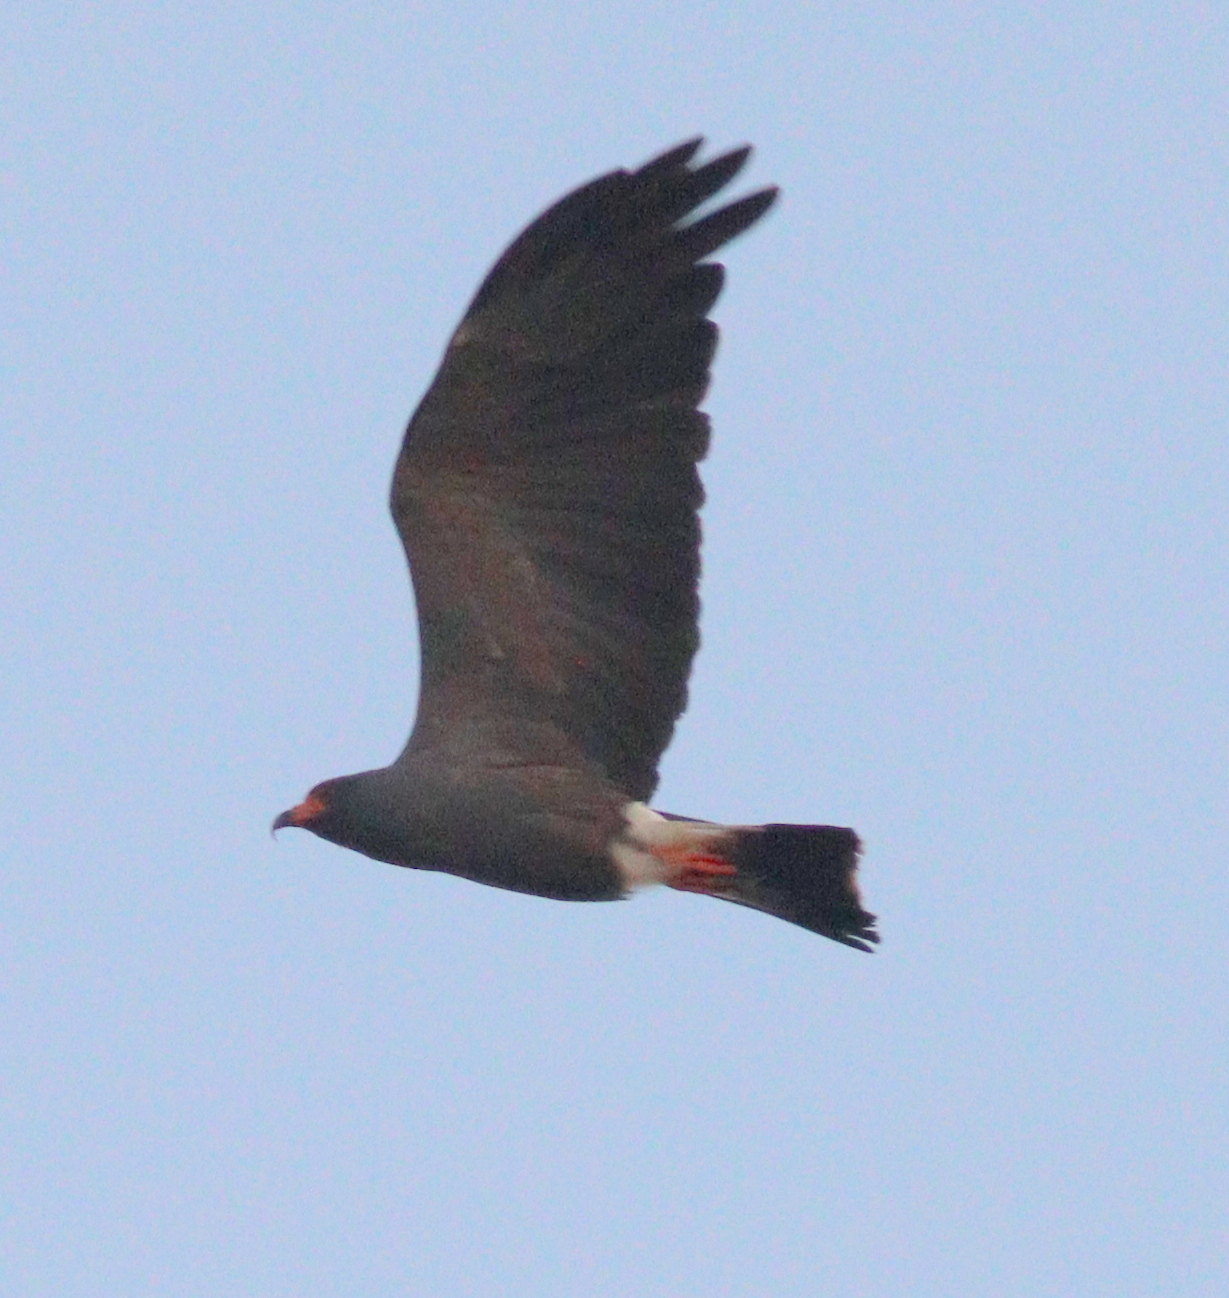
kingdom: Animalia
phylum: Chordata
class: Aves
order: Accipitriformes
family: Accipitridae
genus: Rostrhamus
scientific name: Rostrhamus sociabilis
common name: Snail kite
